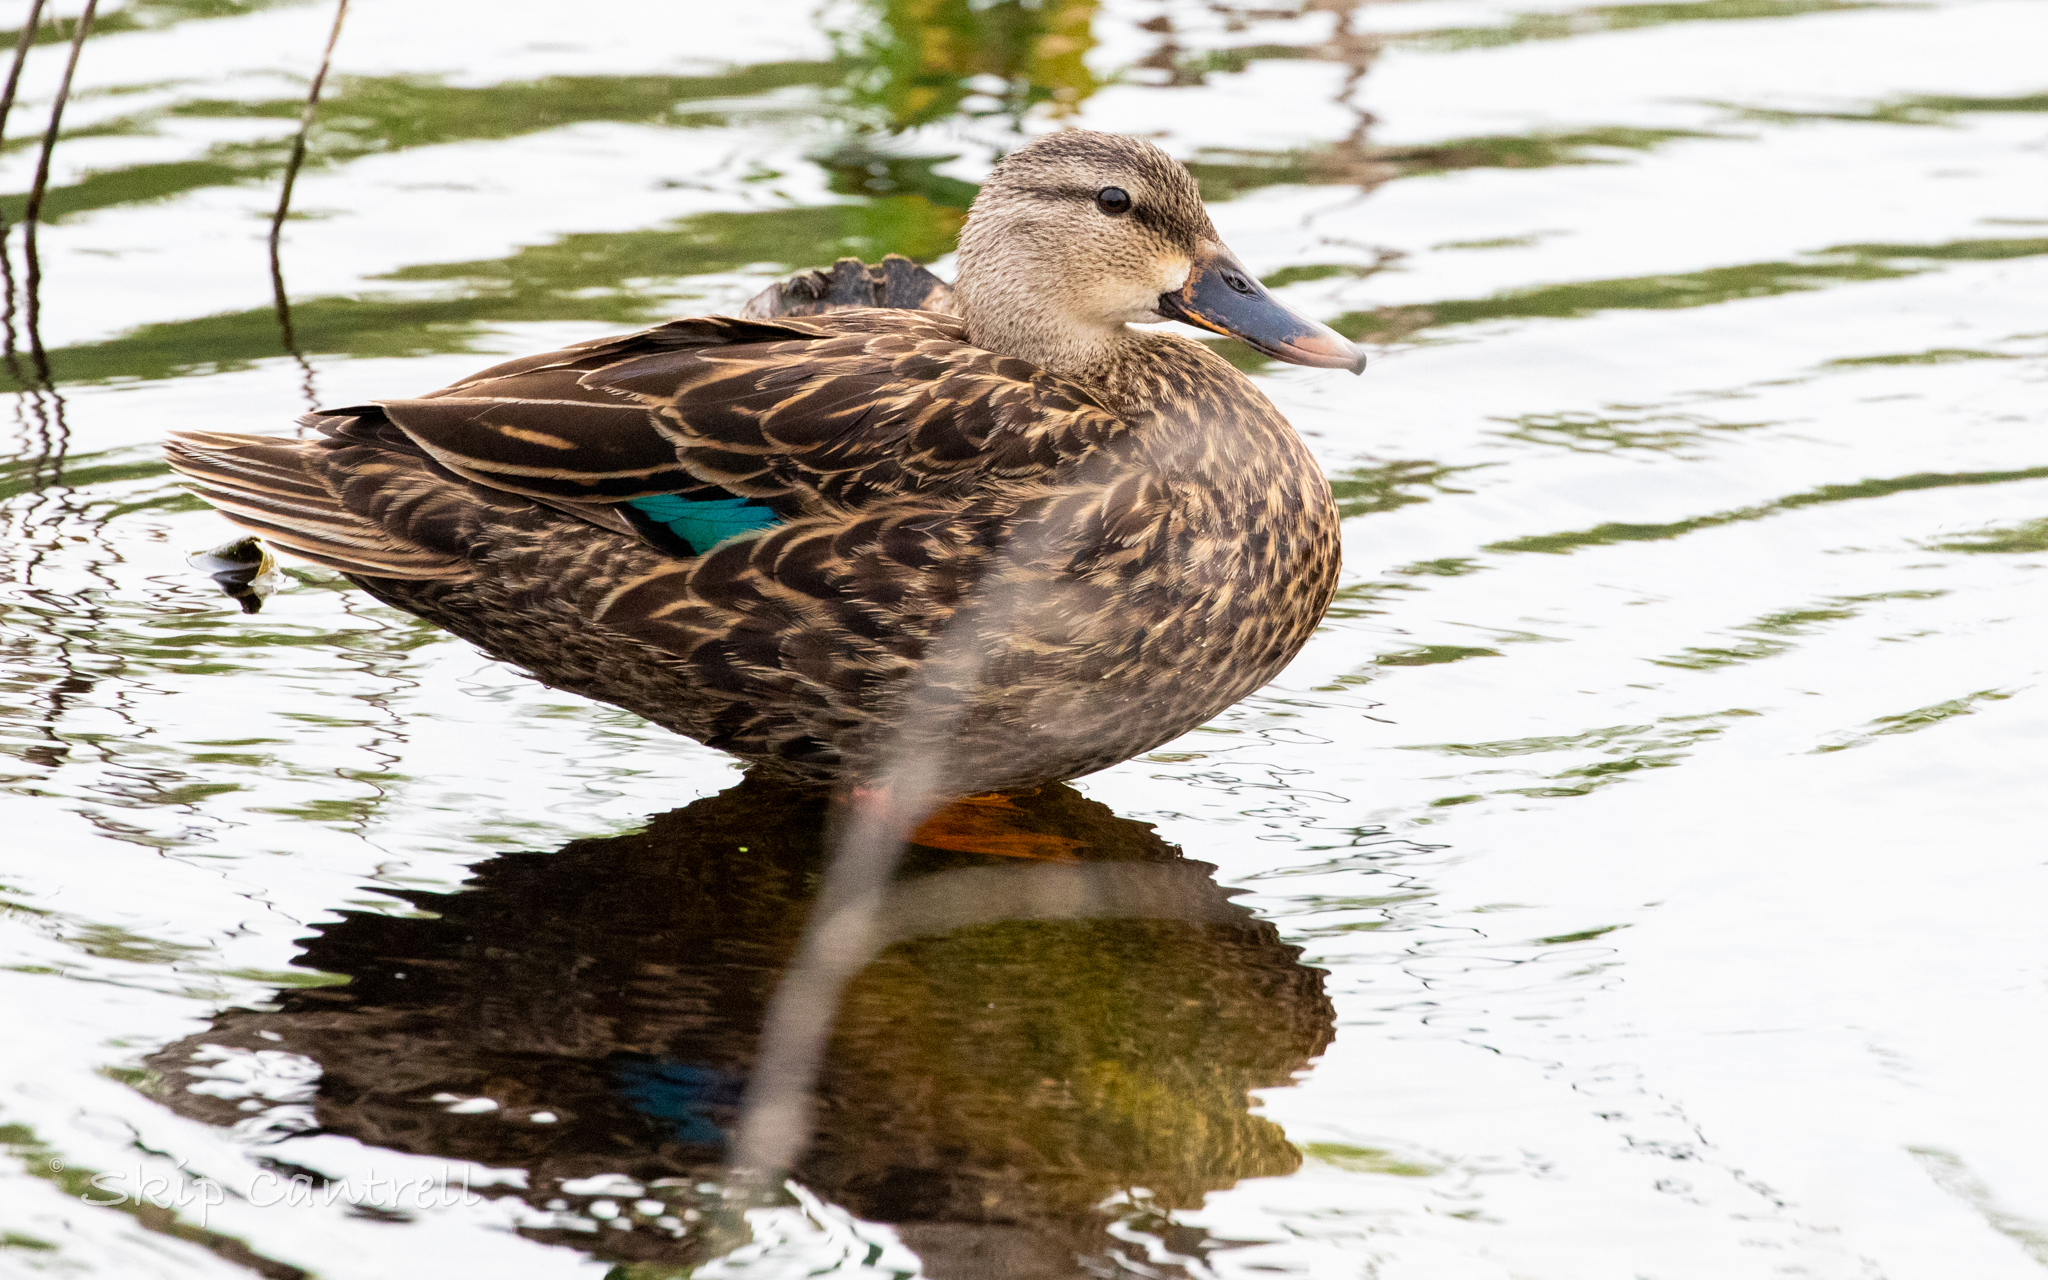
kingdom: Animalia
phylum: Chordata
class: Aves
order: Anseriformes
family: Anatidae
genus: Anas
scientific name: Anas fulvigula
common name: Mottled duck
